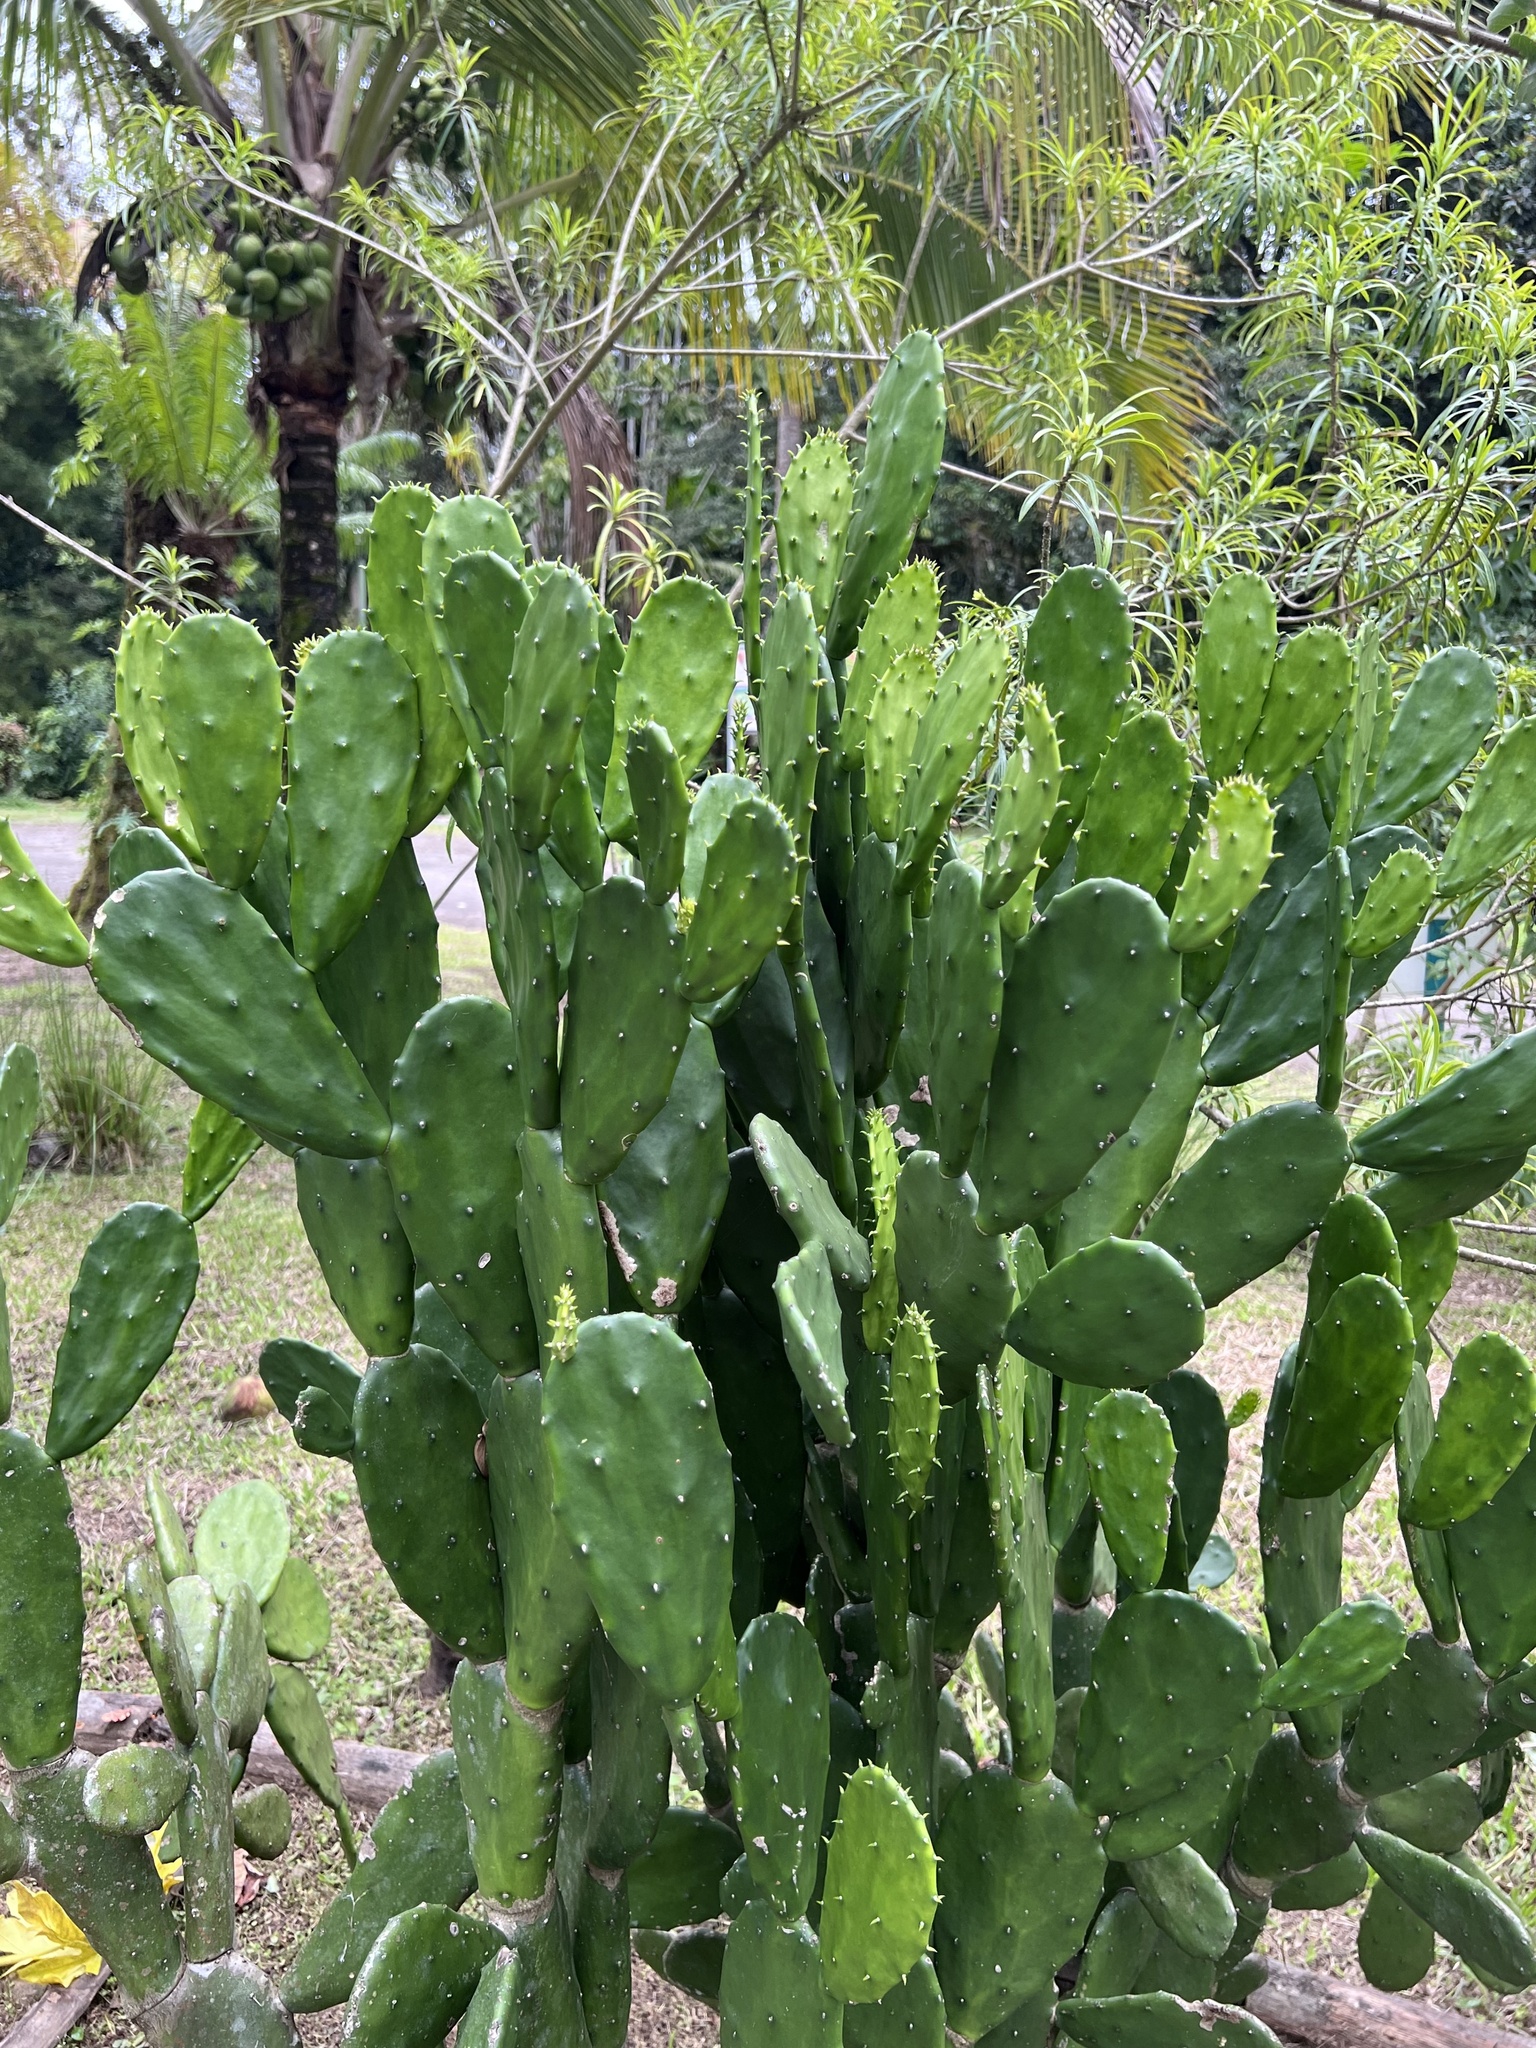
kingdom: Plantae
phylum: Tracheophyta
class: Magnoliopsida
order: Caryophyllales
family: Cactaceae
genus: Opuntia
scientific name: Opuntia cochenillifera
